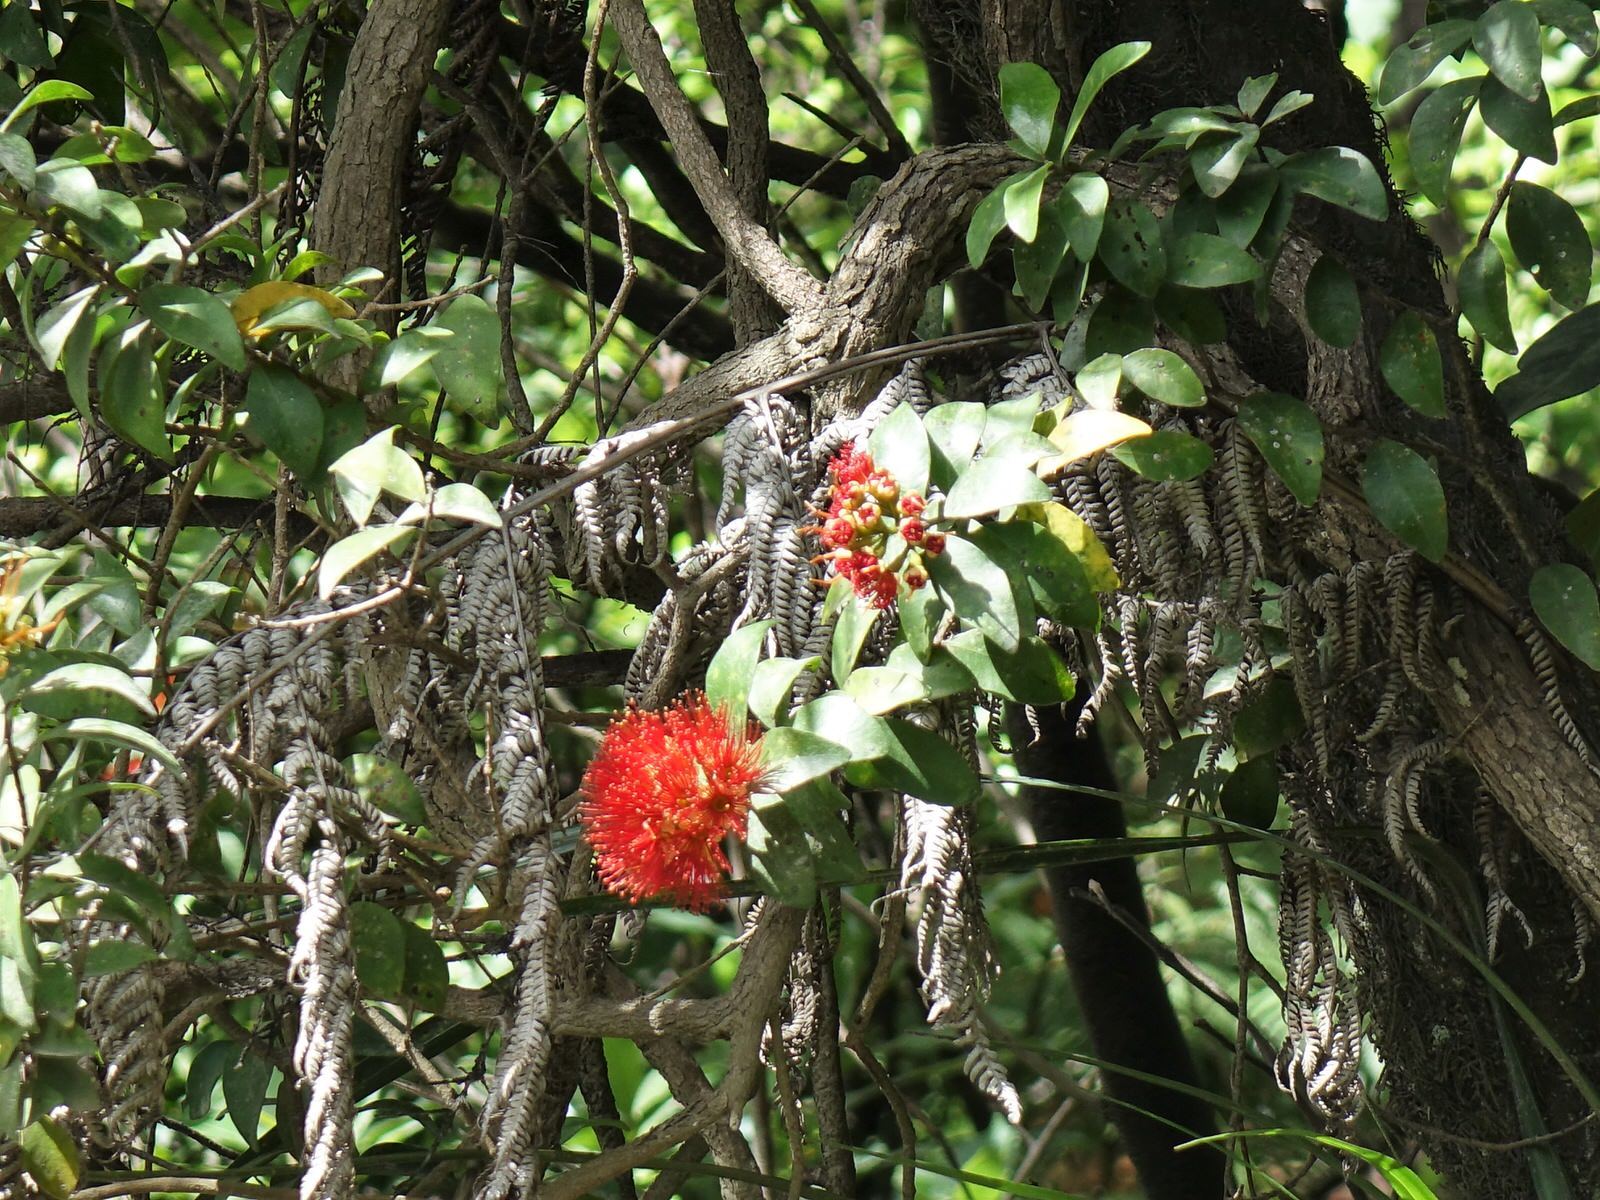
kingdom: Plantae
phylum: Tracheophyta
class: Magnoliopsida
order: Myrtales
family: Myrtaceae
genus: Metrosideros
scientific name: Metrosideros fulgens
